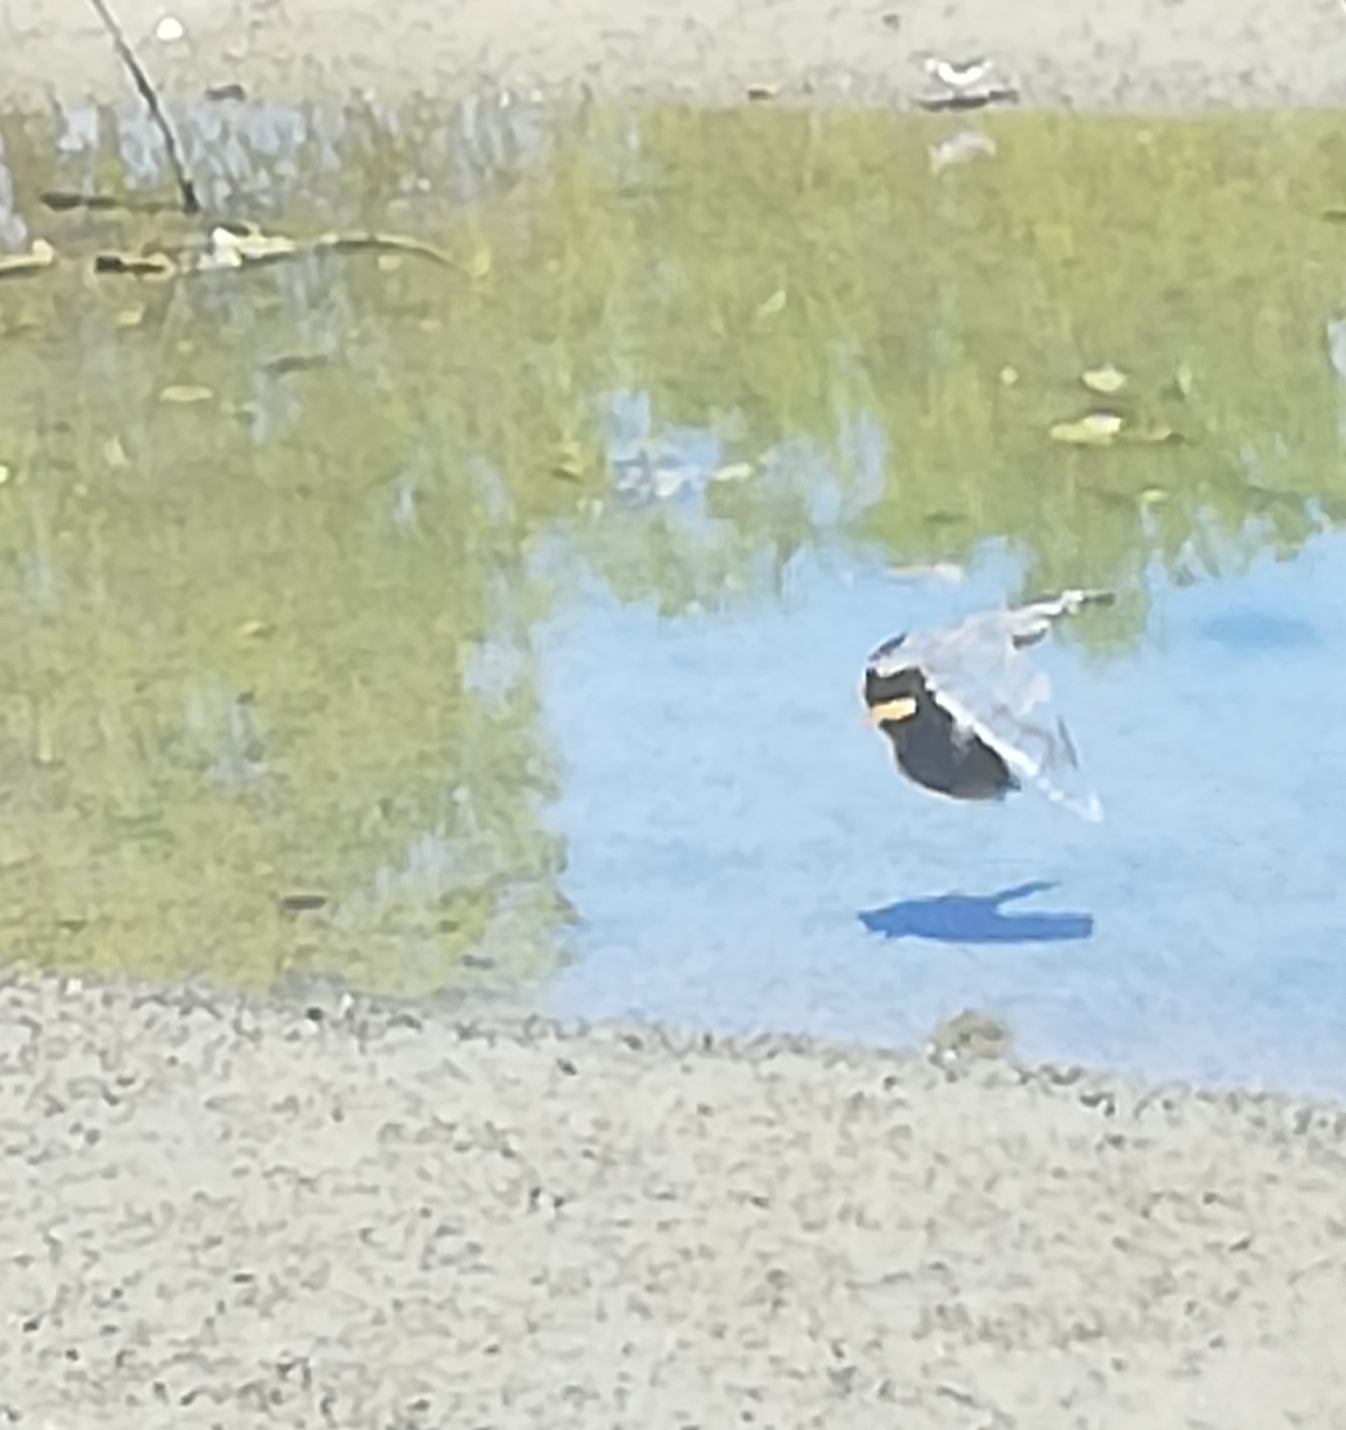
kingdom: Animalia
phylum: Chordata
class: Aves
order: Pelecaniformes
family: Ardeidae
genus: Butorides
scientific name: Butorides striata
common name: Striated heron
